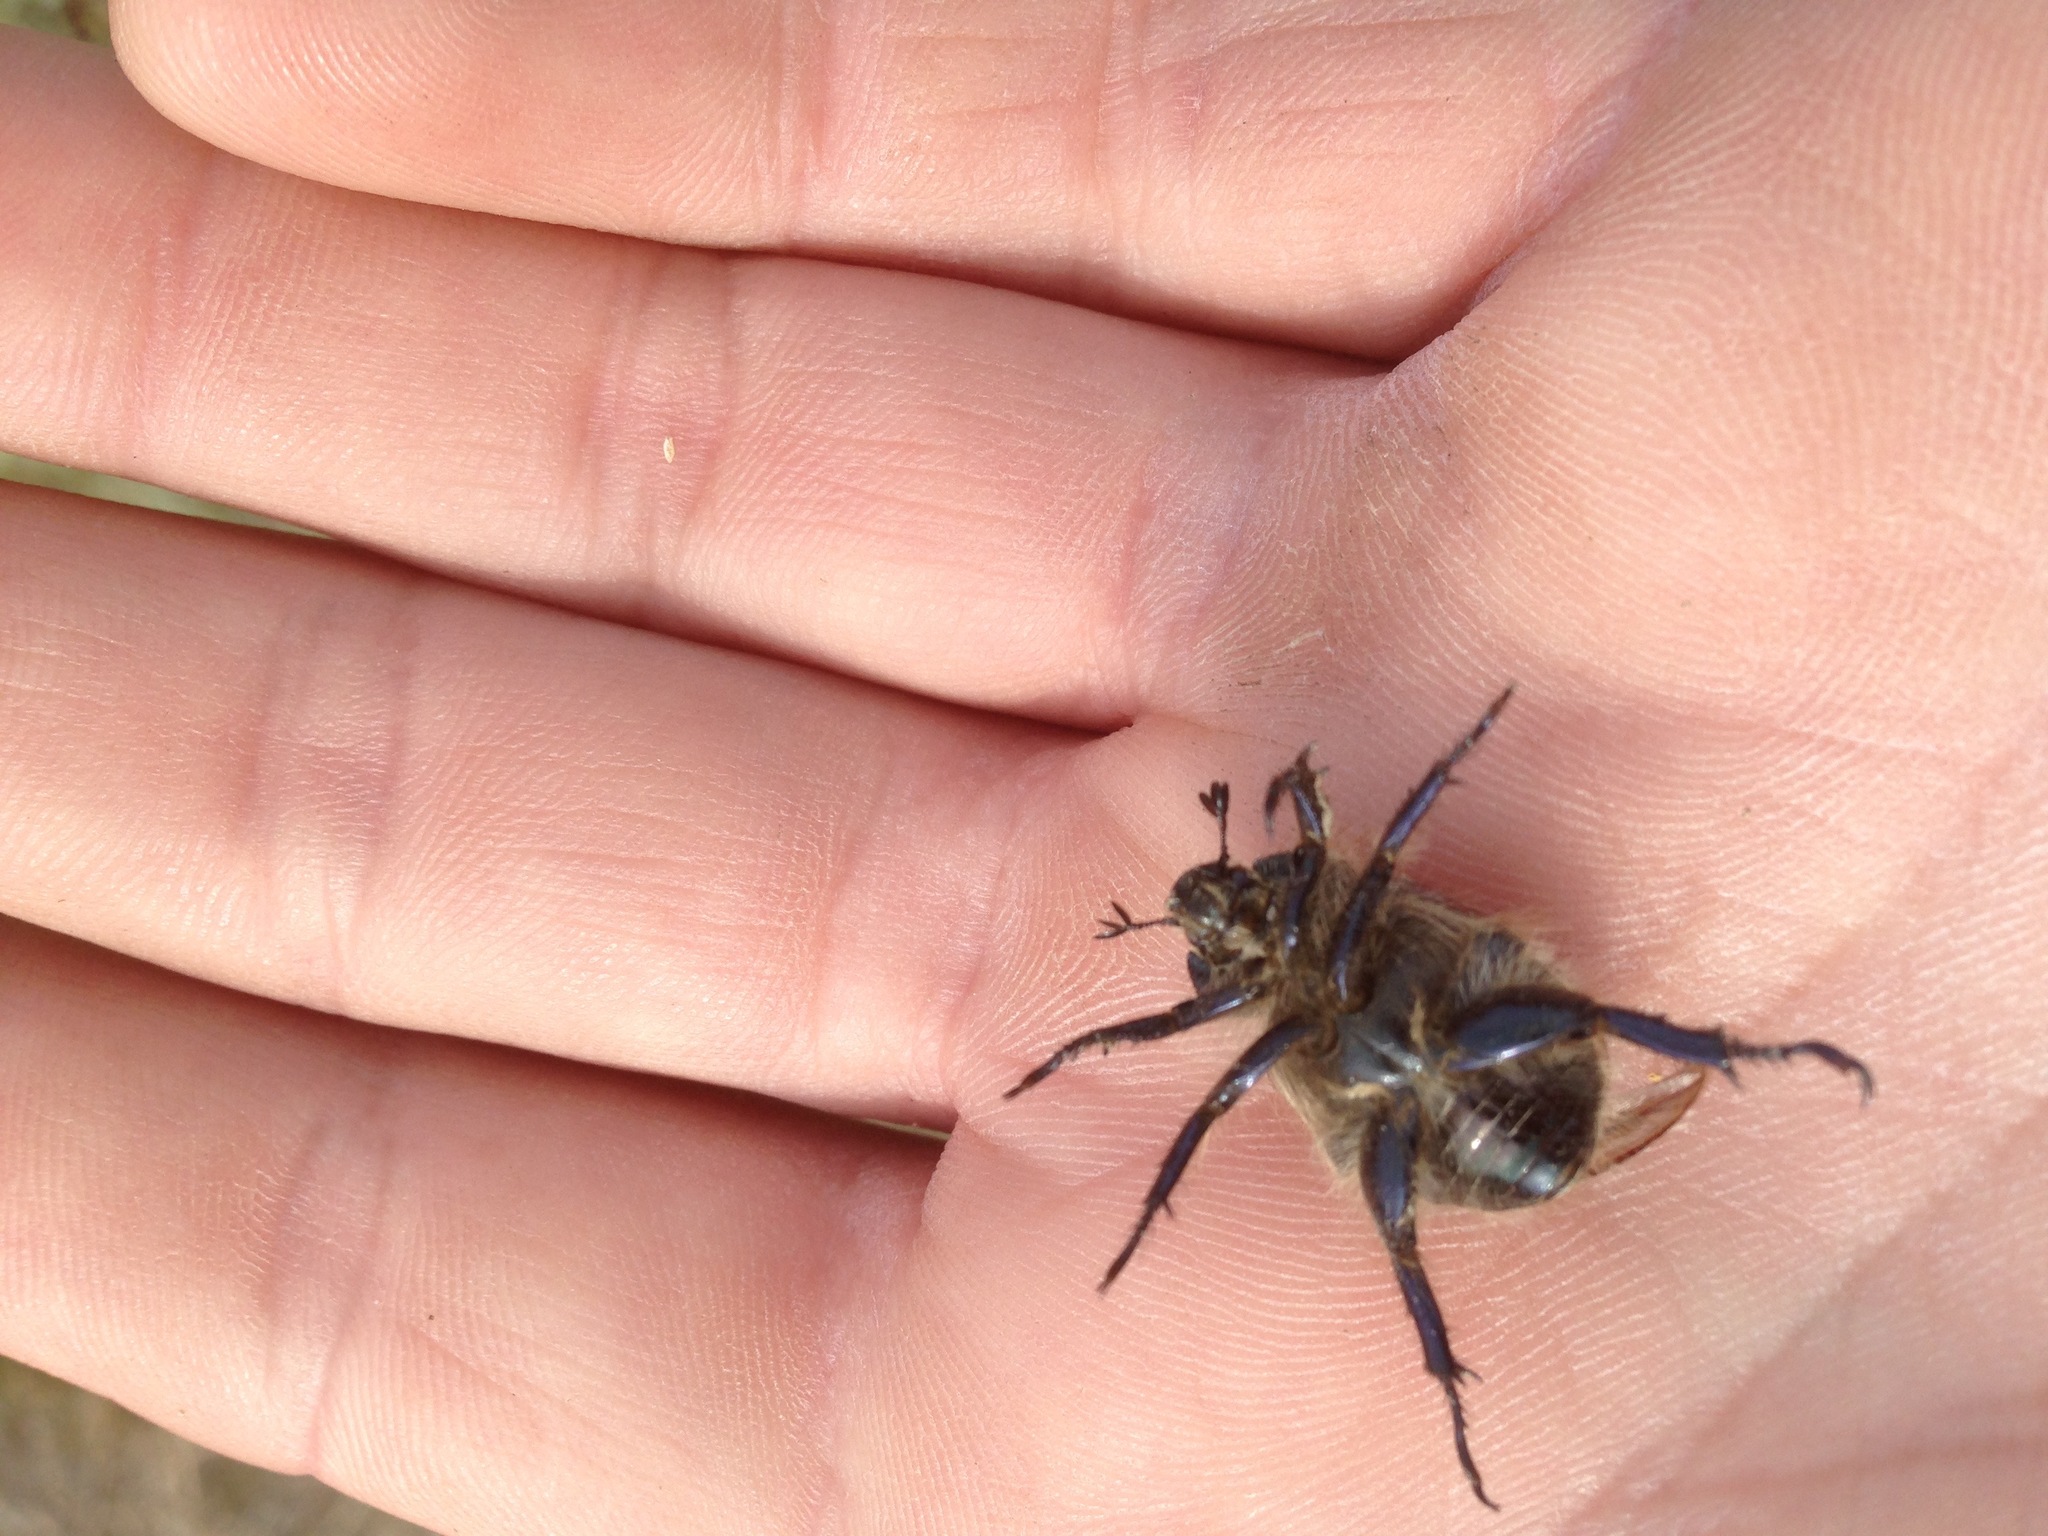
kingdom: Animalia
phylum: Arthropoda
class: Insecta
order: Coleoptera
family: Scarabaeidae
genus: Paracotalpa
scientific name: Paracotalpa ursina
